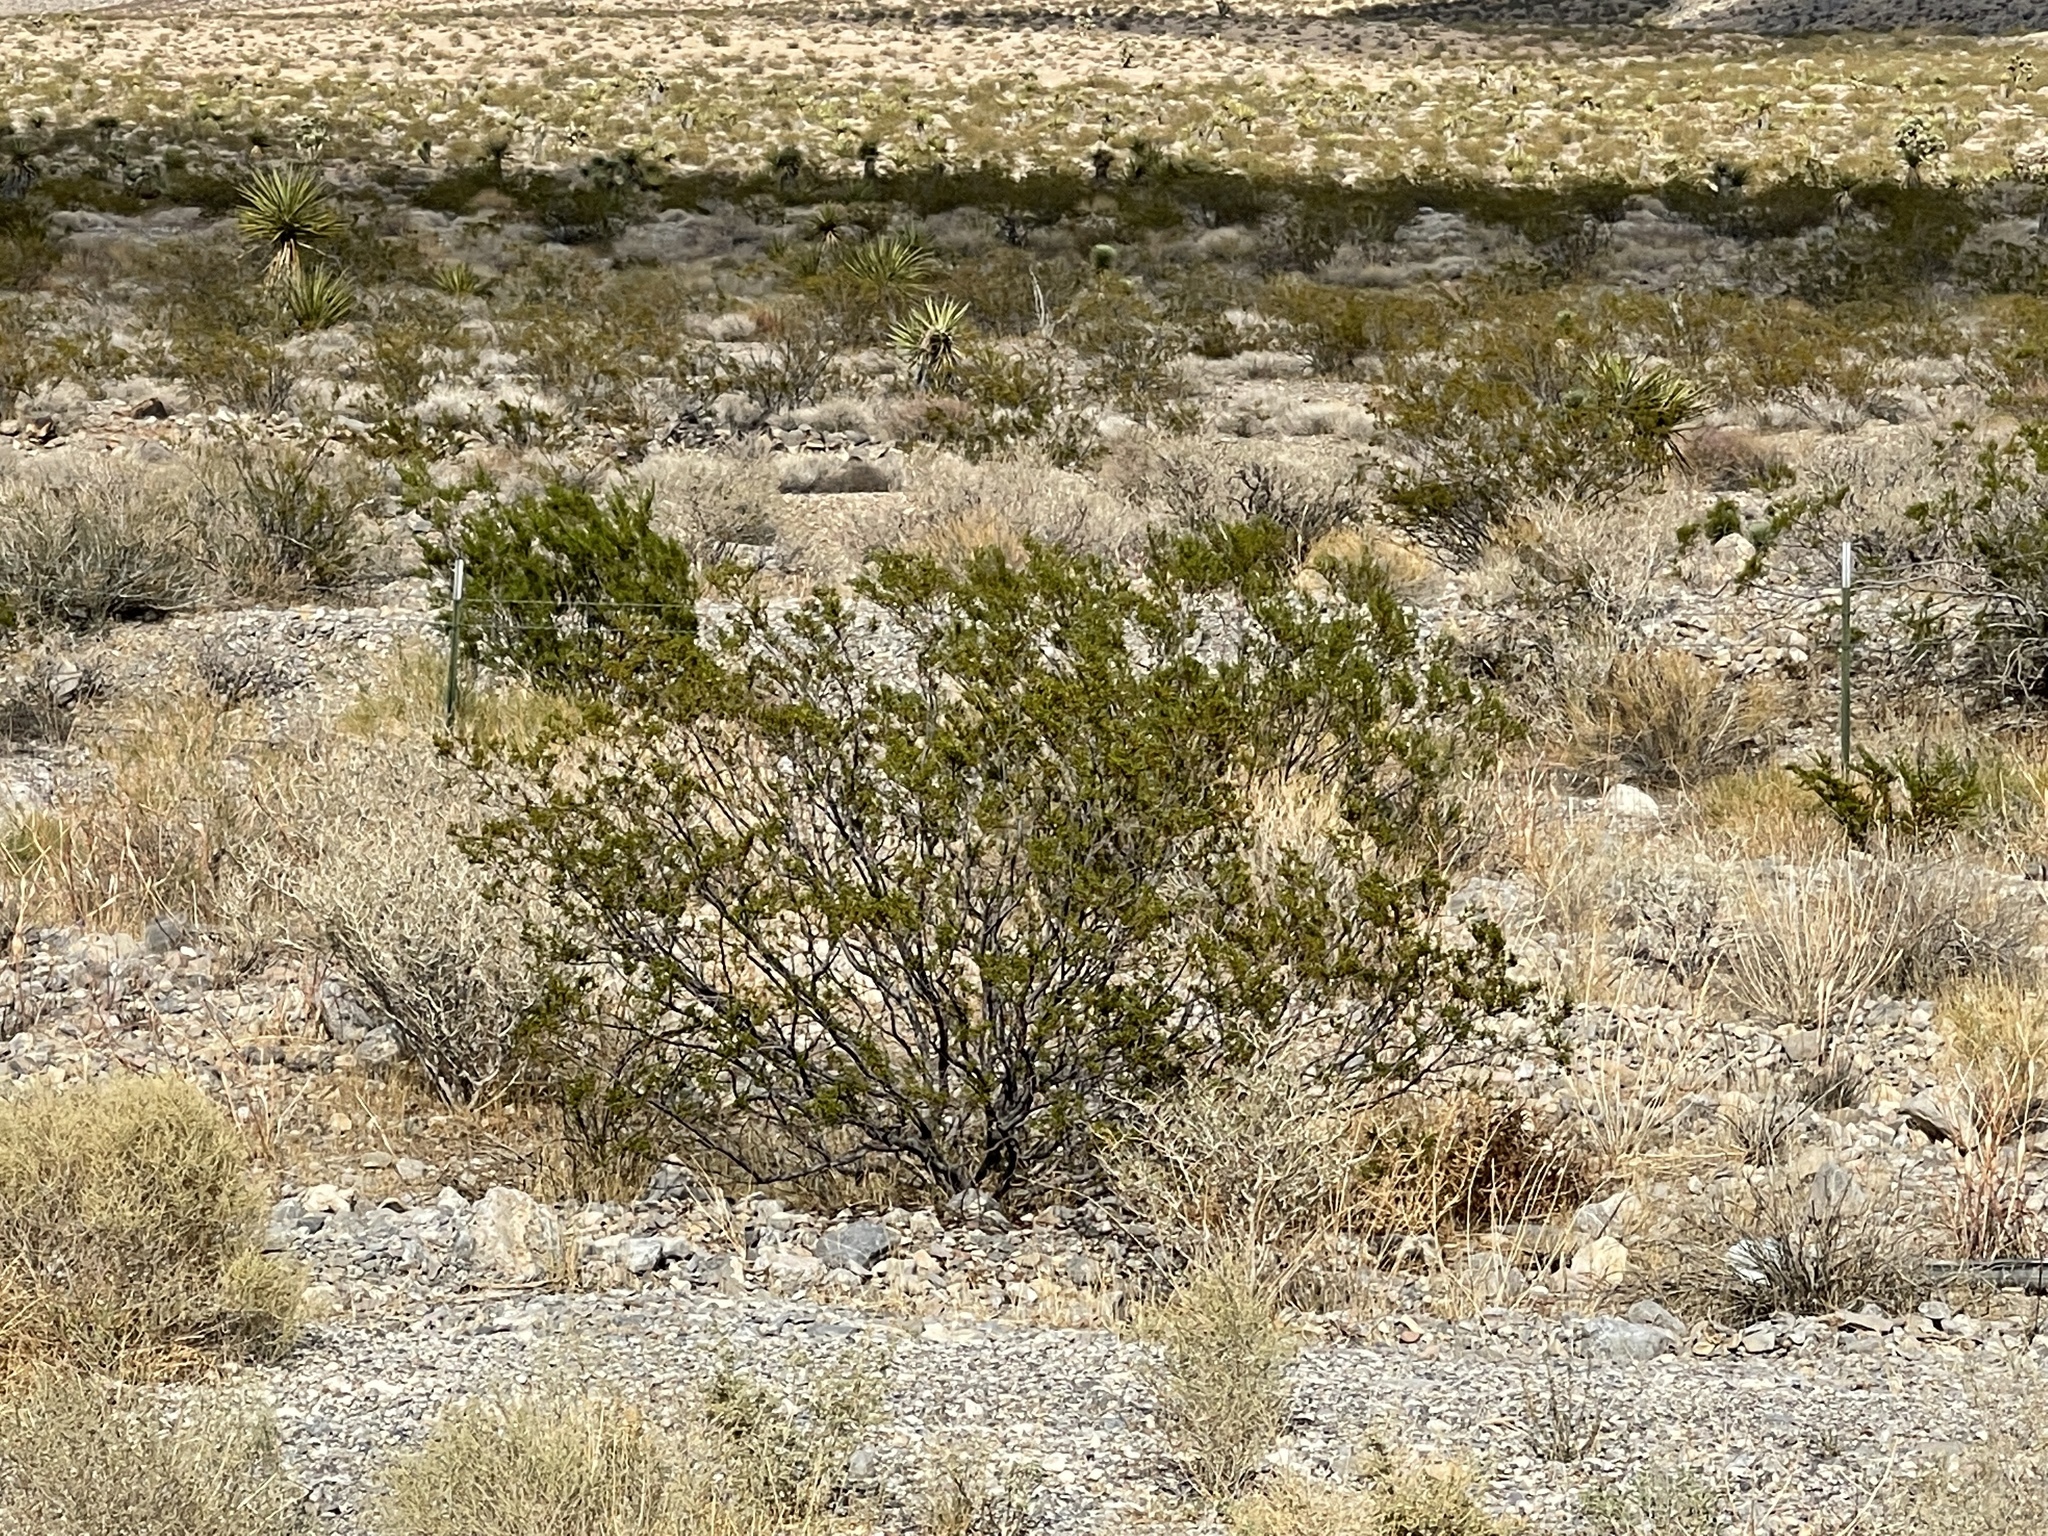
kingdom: Plantae
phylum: Tracheophyta
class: Magnoliopsida
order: Zygophyllales
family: Zygophyllaceae
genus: Larrea
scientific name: Larrea tridentata
